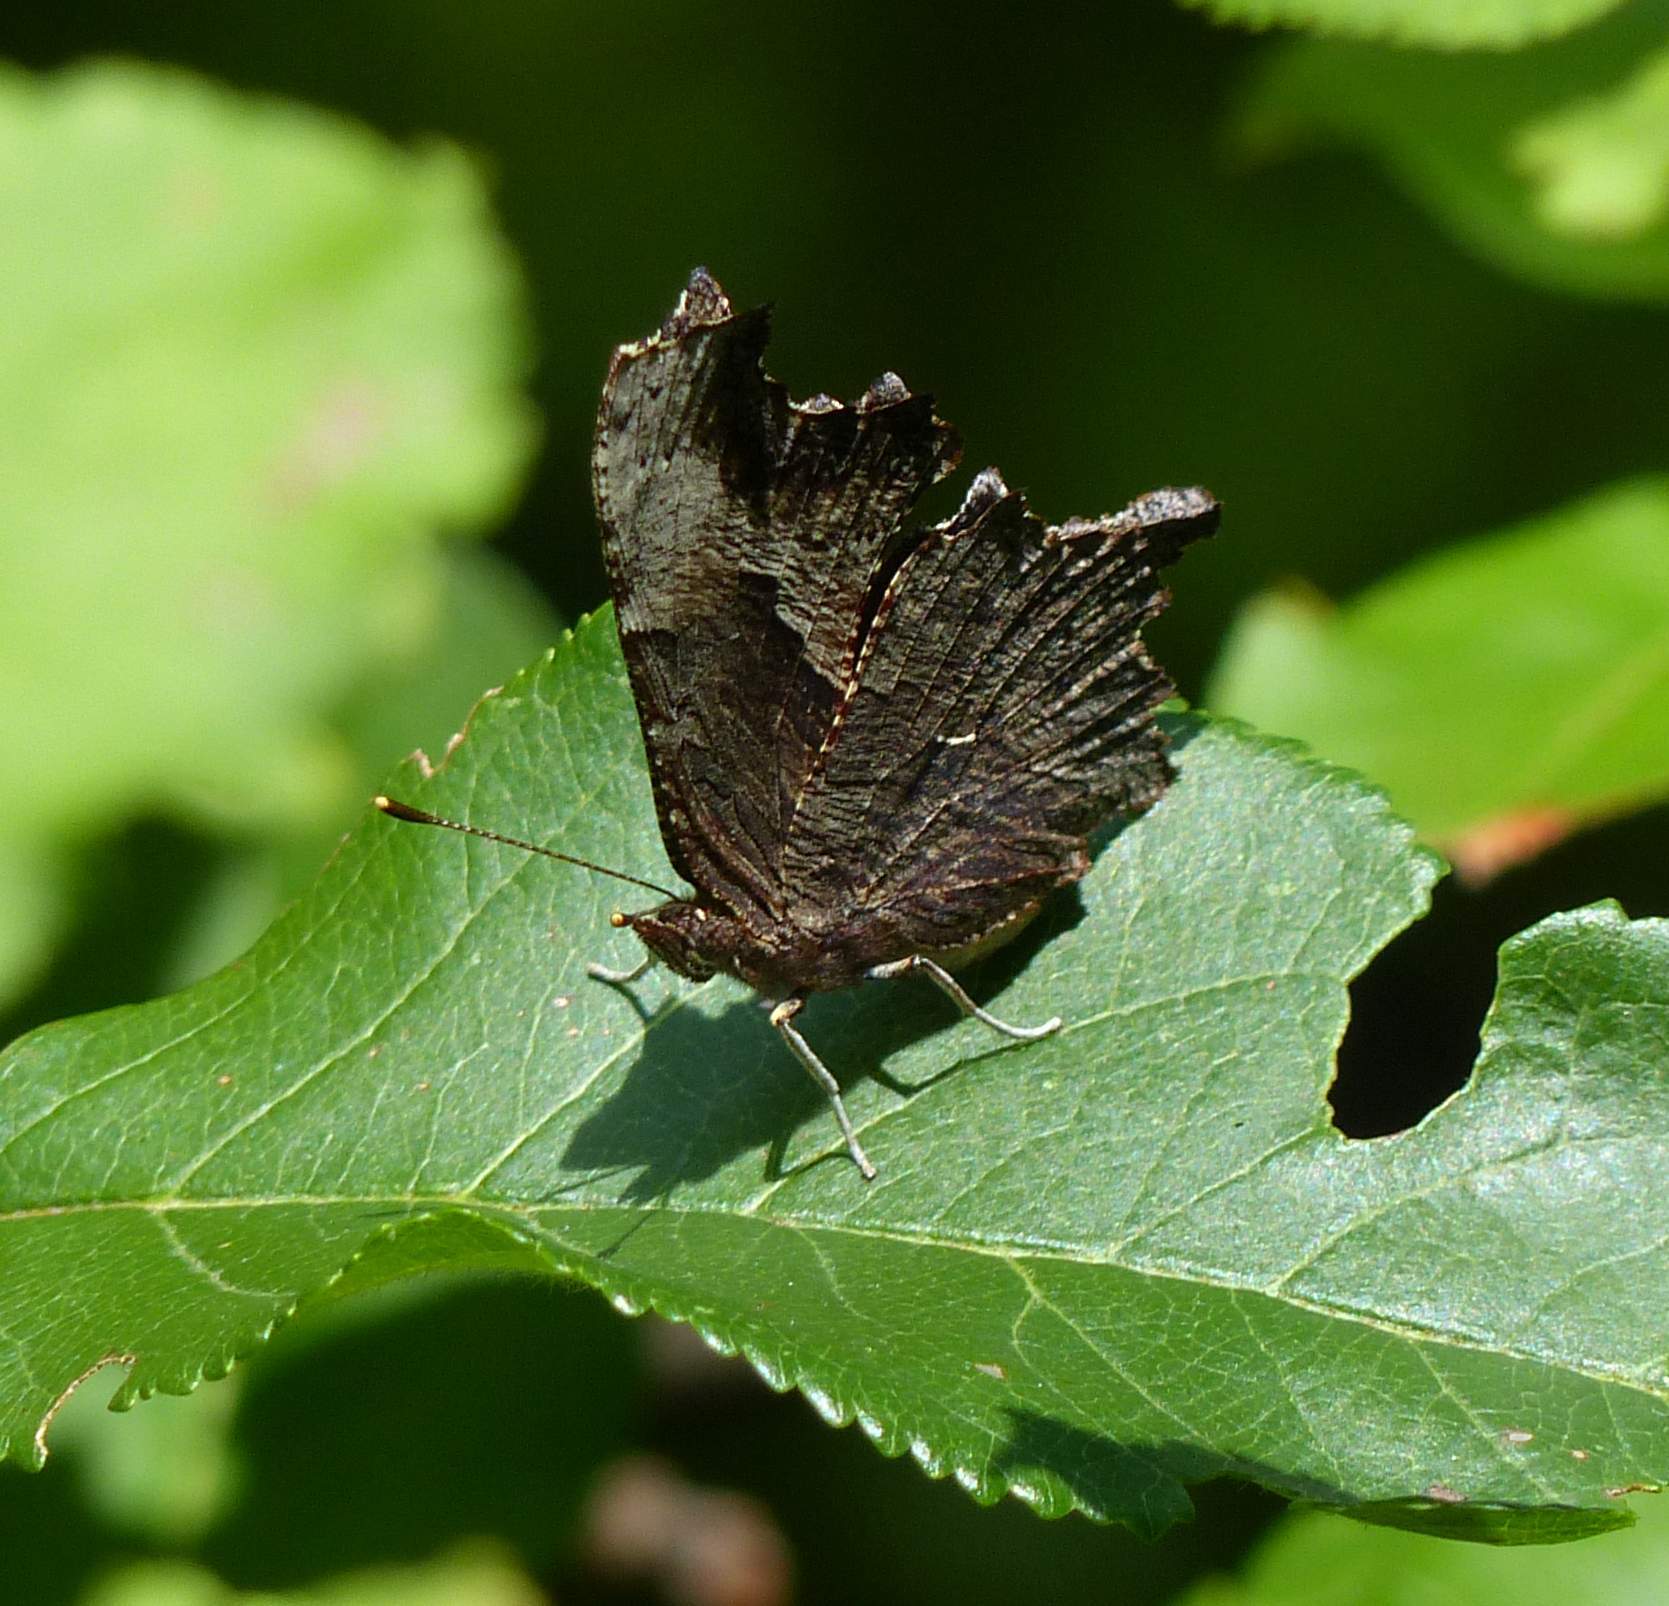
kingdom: Animalia
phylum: Arthropoda
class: Insecta
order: Lepidoptera
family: Nymphalidae
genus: Polygonia
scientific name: Polygonia progne
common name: Gray comma
